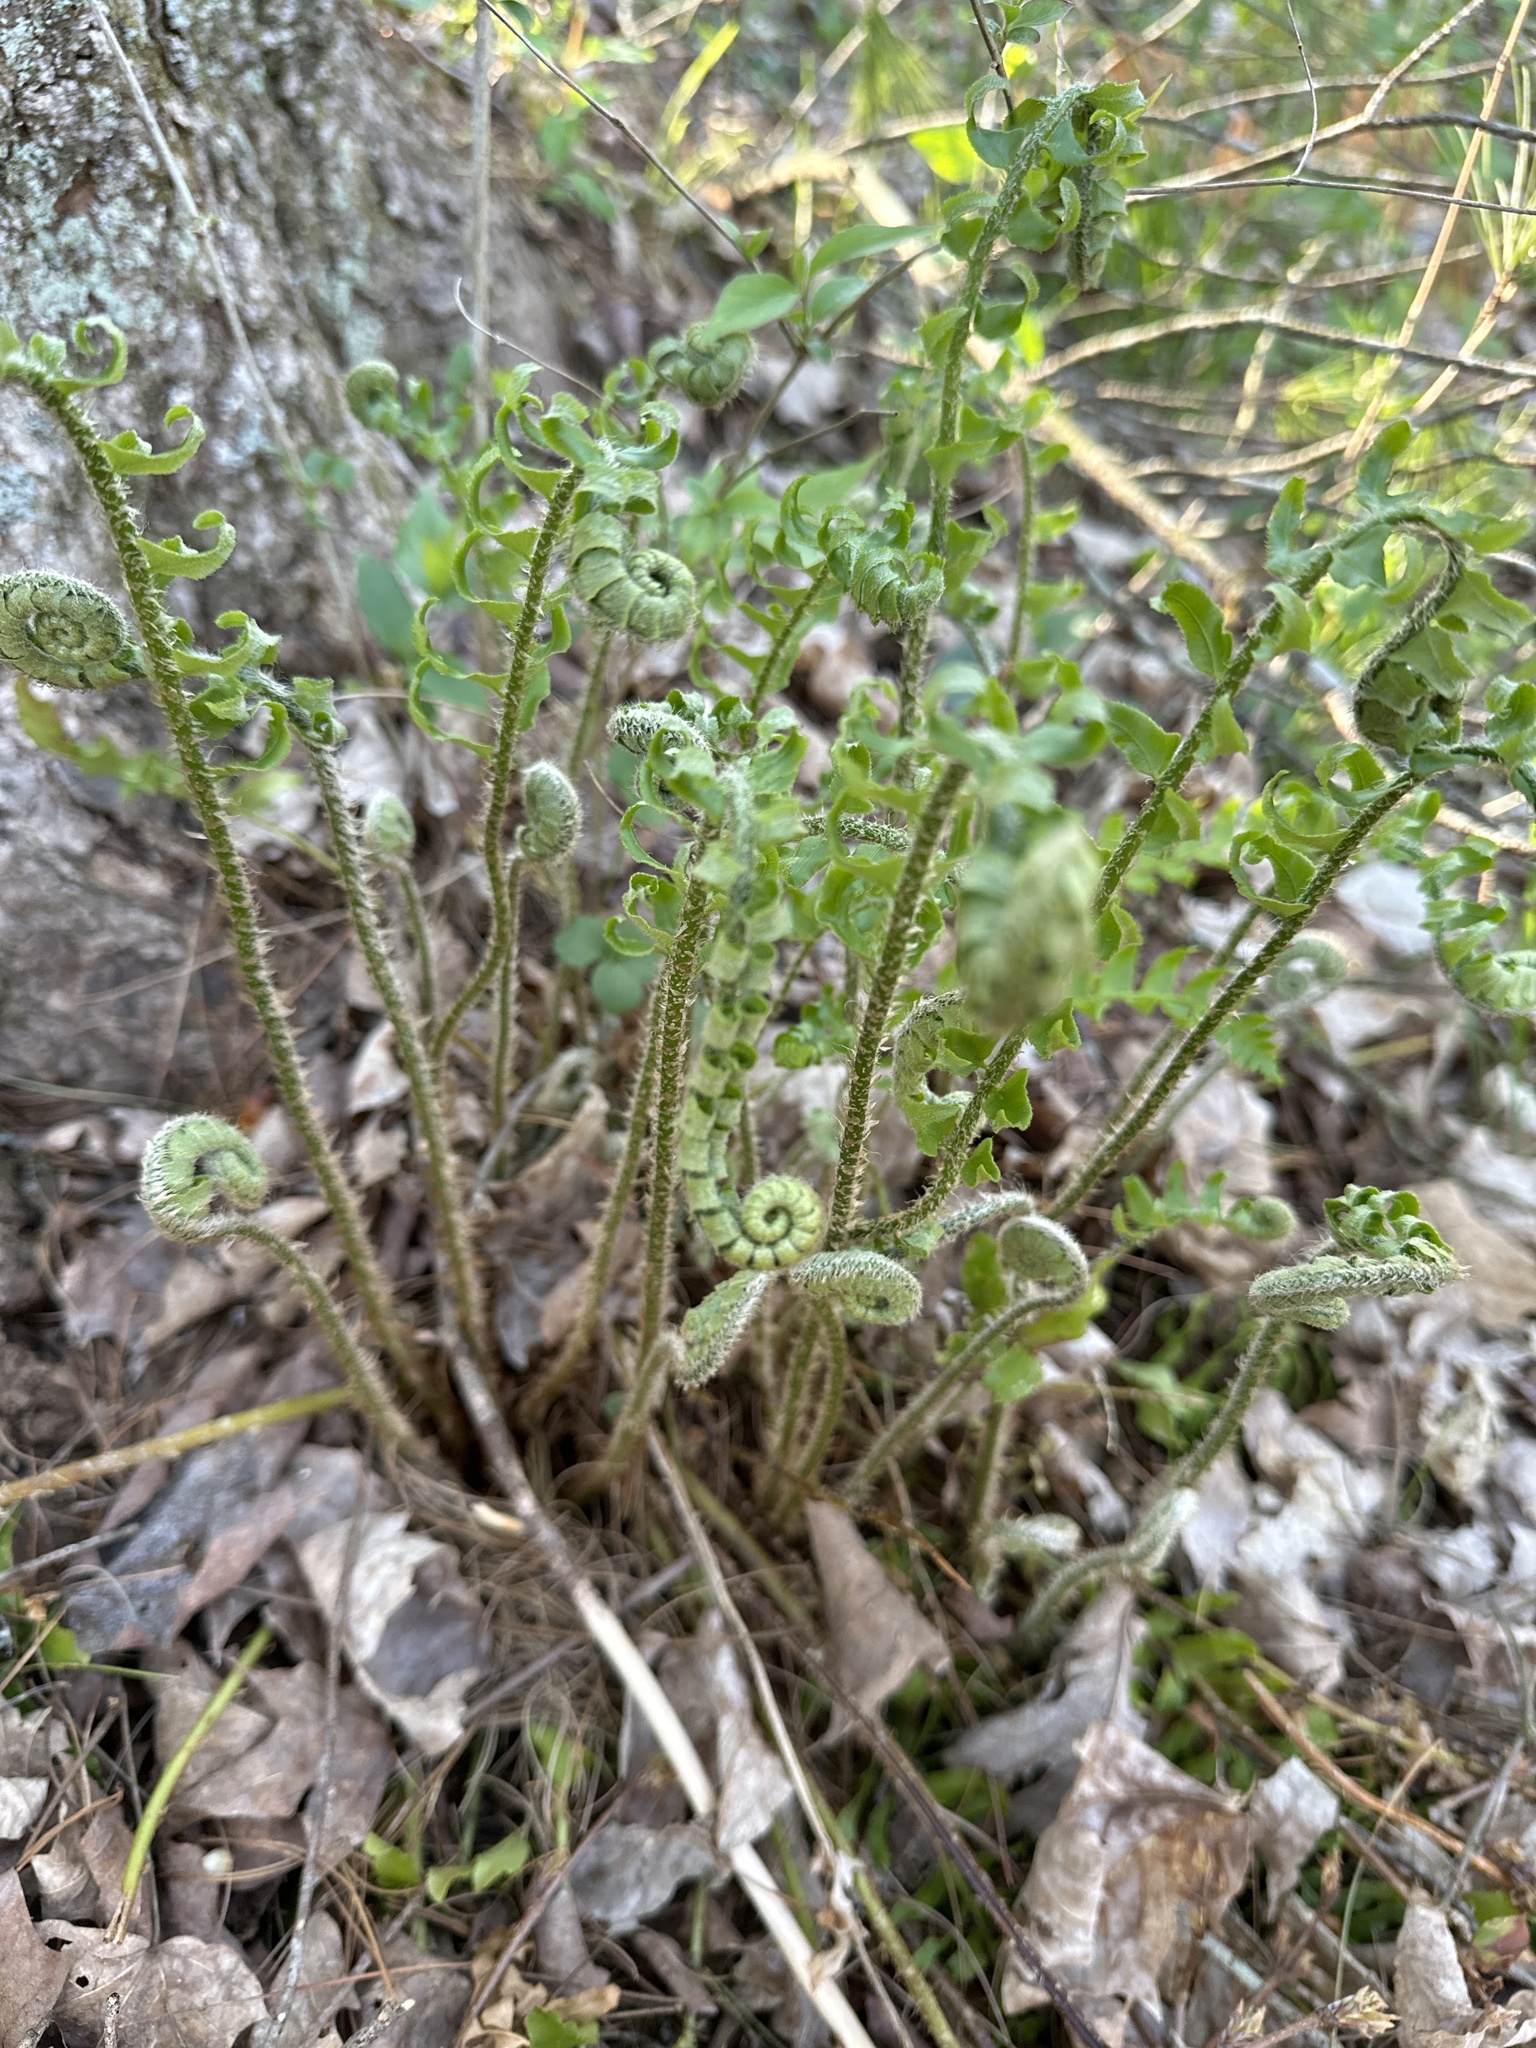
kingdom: Plantae
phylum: Tracheophyta
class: Polypodiopsida
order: Polypodiales
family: Dryopteridaceae
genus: Polystichum
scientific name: Polystichum acrostichoides
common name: Christmas fern
